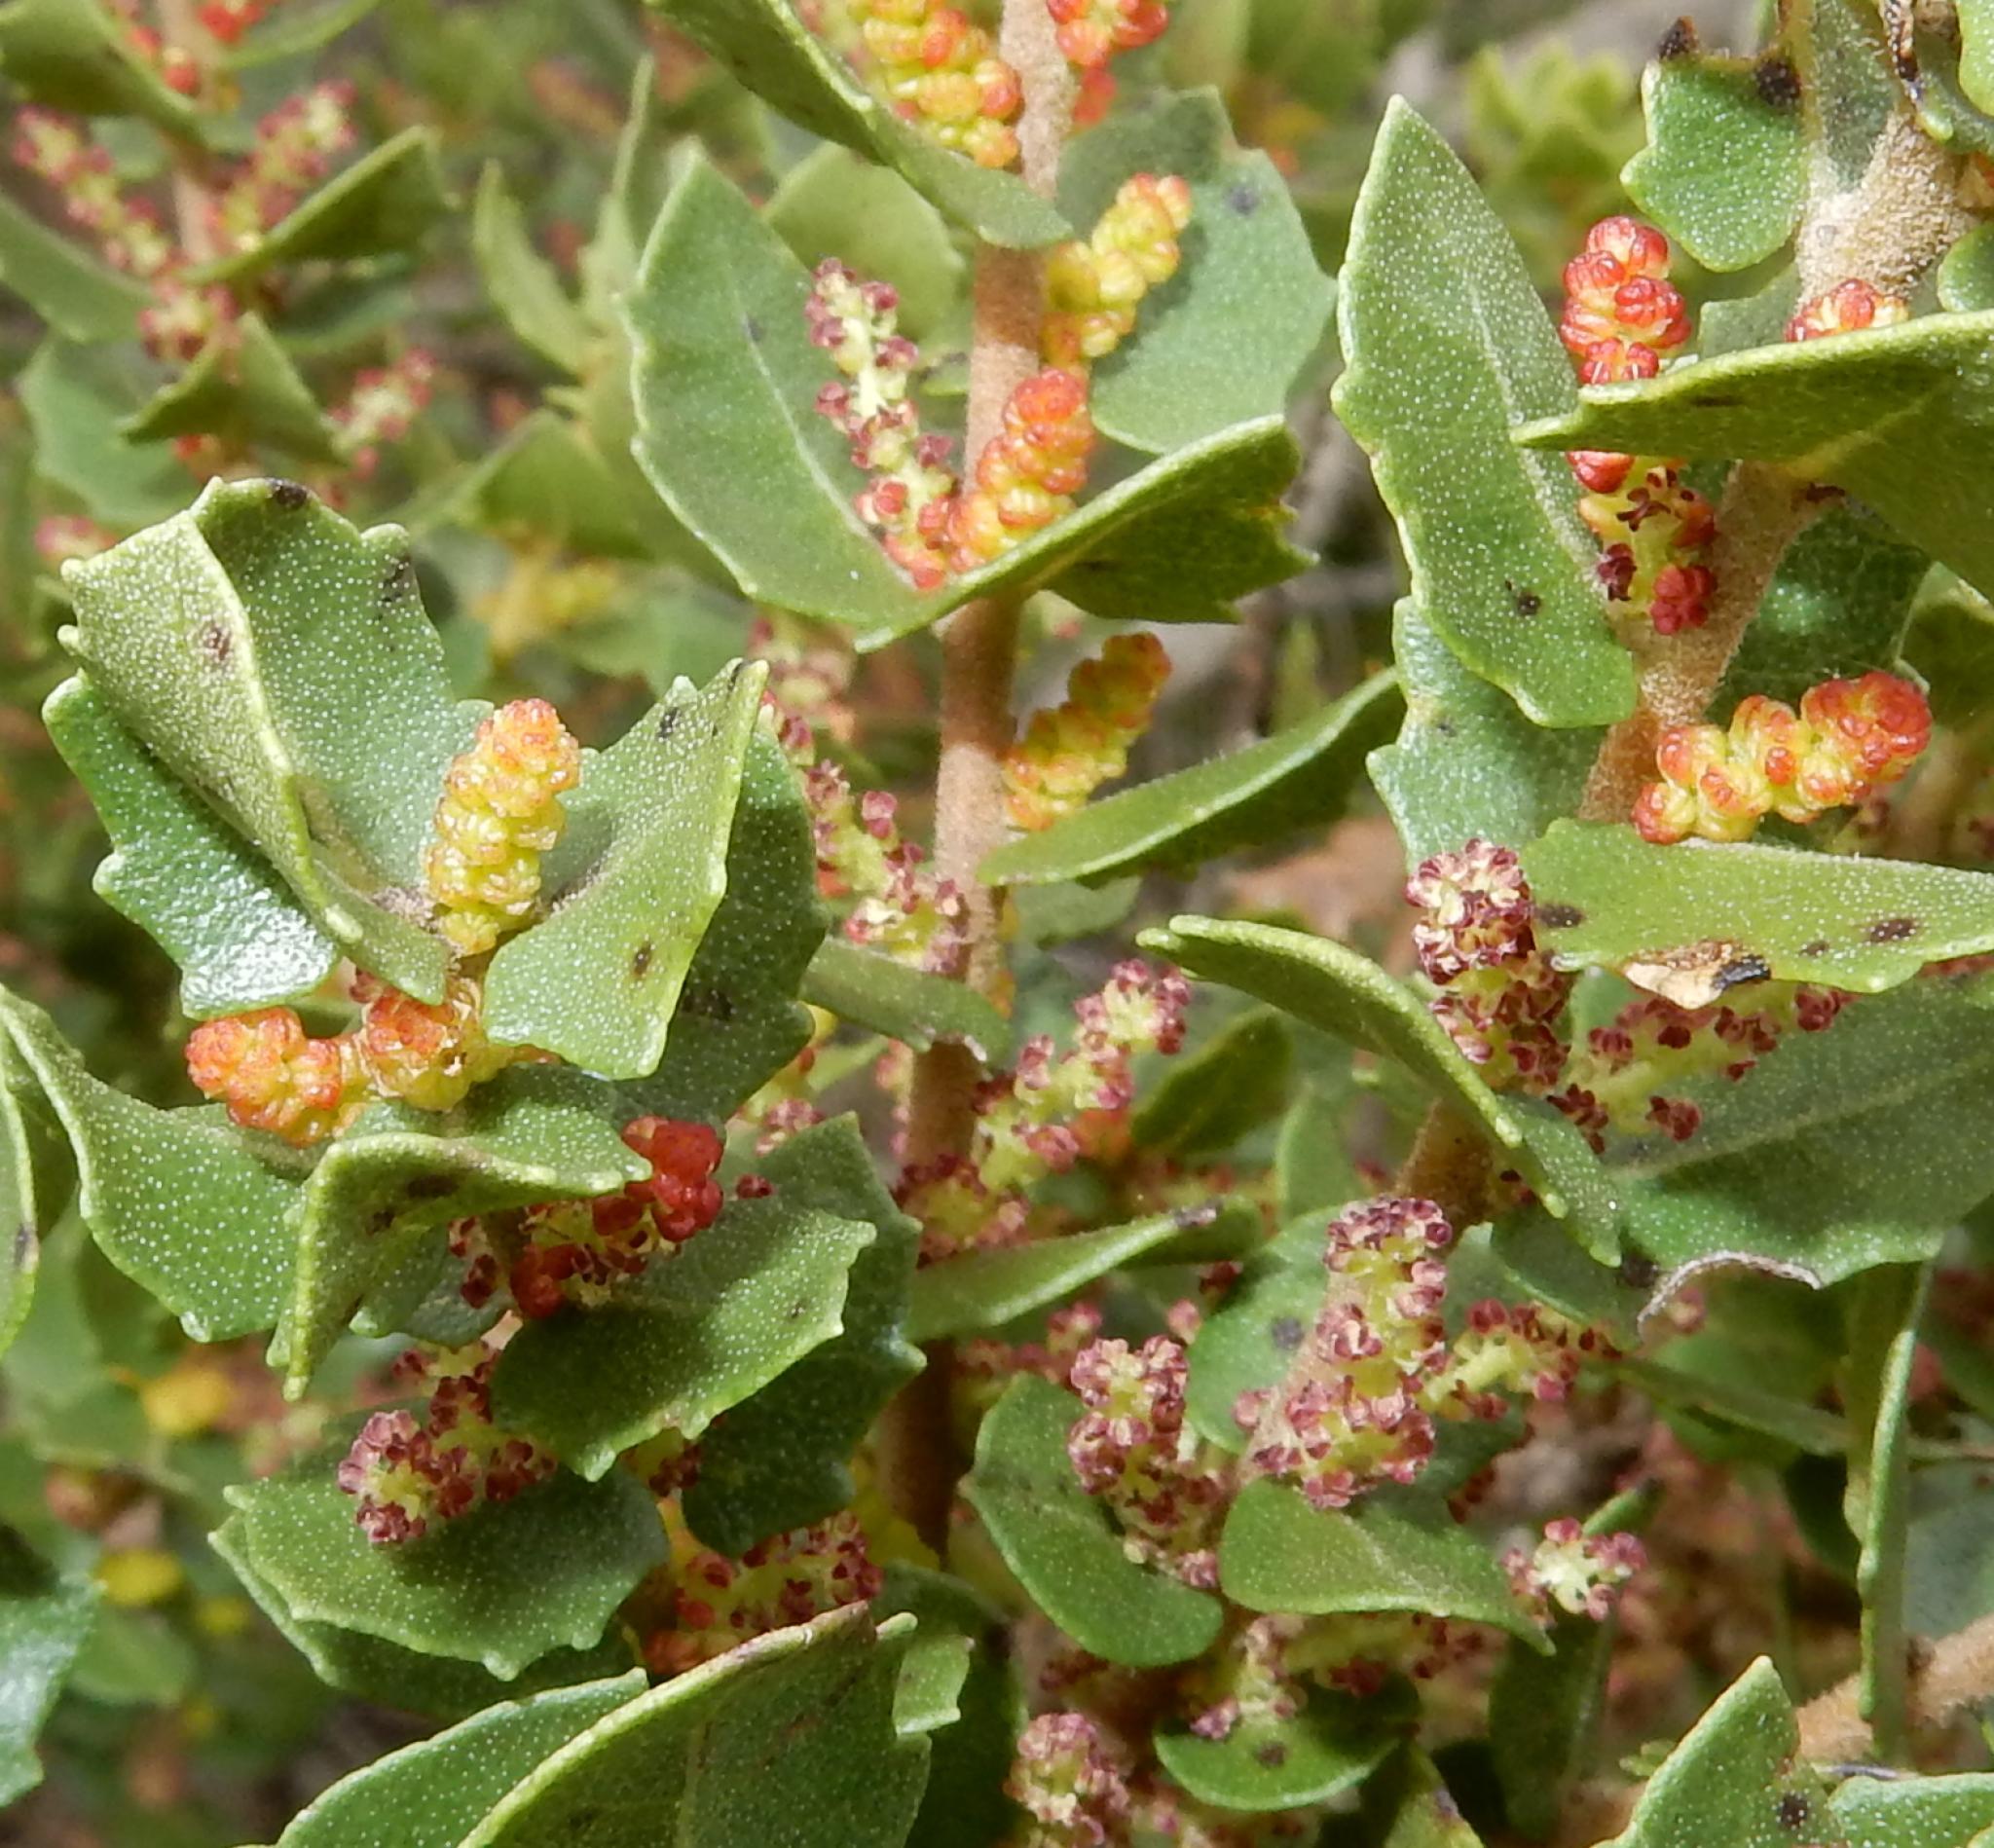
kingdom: Plantae
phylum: Tracheophyta
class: Magnoliopsida
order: Fagales
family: Myricaceae
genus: Morella
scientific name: Morella cordifolia
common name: Waxberry
